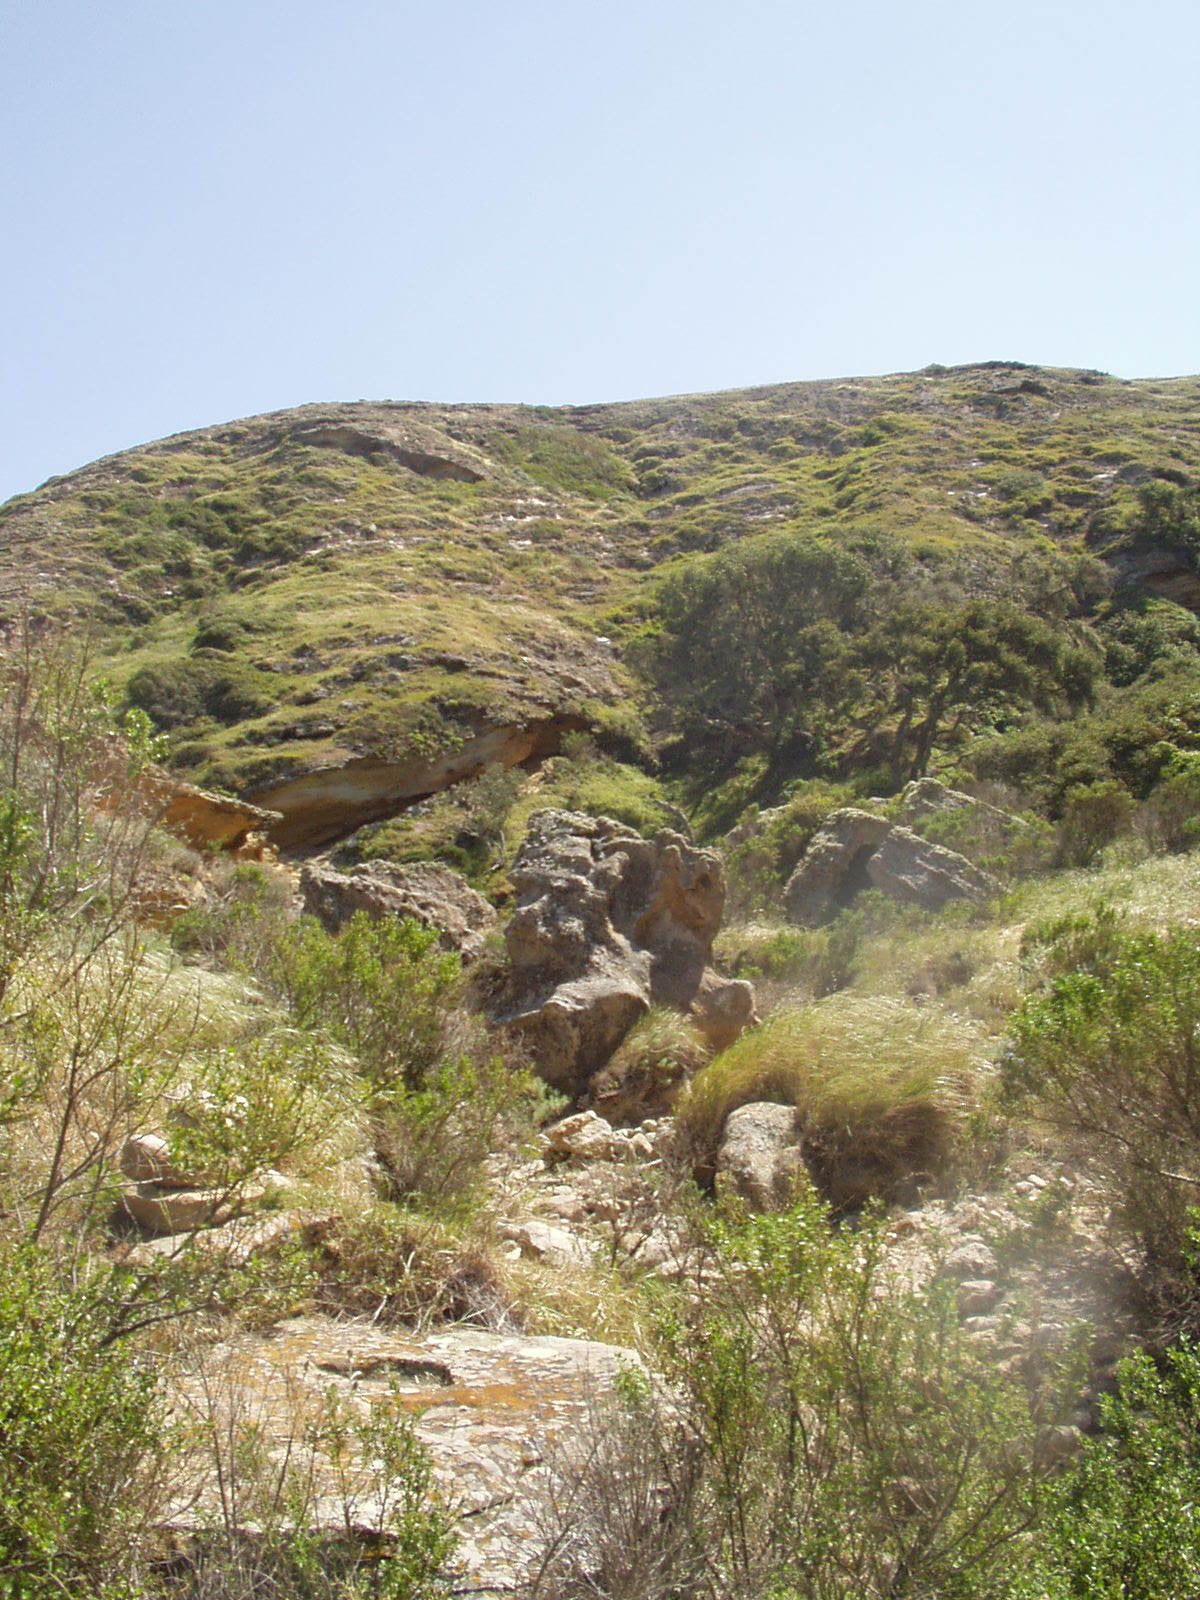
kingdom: Plantae
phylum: Tracheophyta
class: Magnoliopsida
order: Asterales
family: Asteraceae
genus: Baccharis
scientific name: Baccharis pilularis
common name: Coyotebrush
